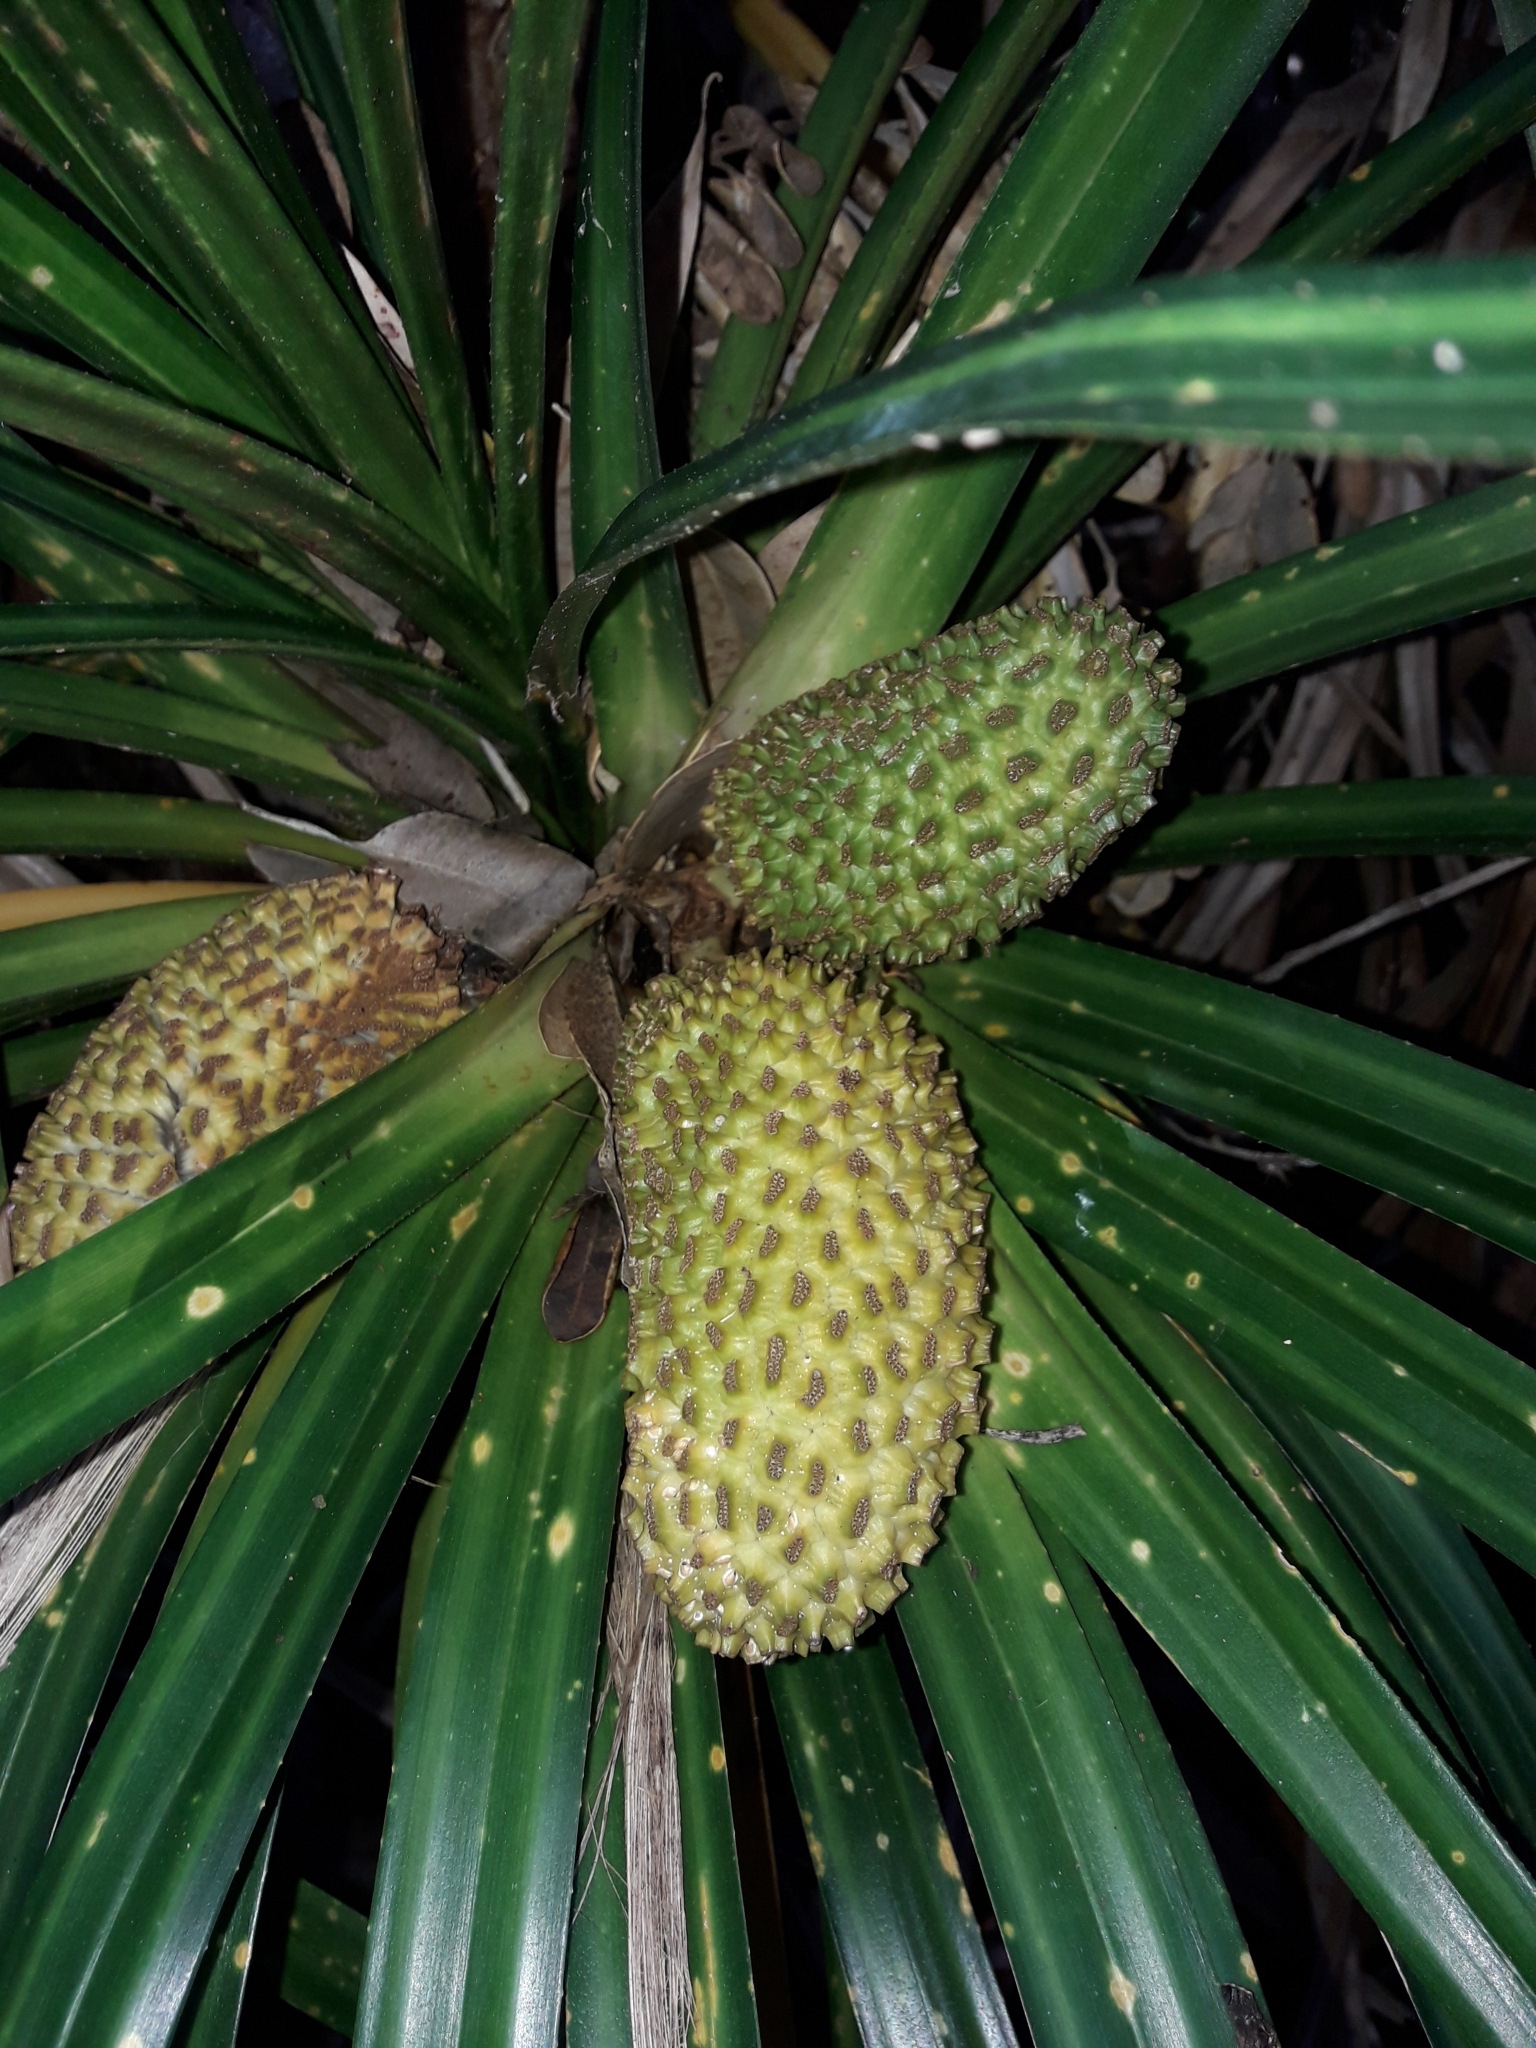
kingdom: Plantae
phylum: Tracheophyta
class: Liliopsida
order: Pandanales
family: Pandanaceae
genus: Freycinetia
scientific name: Freycinetia banksii
